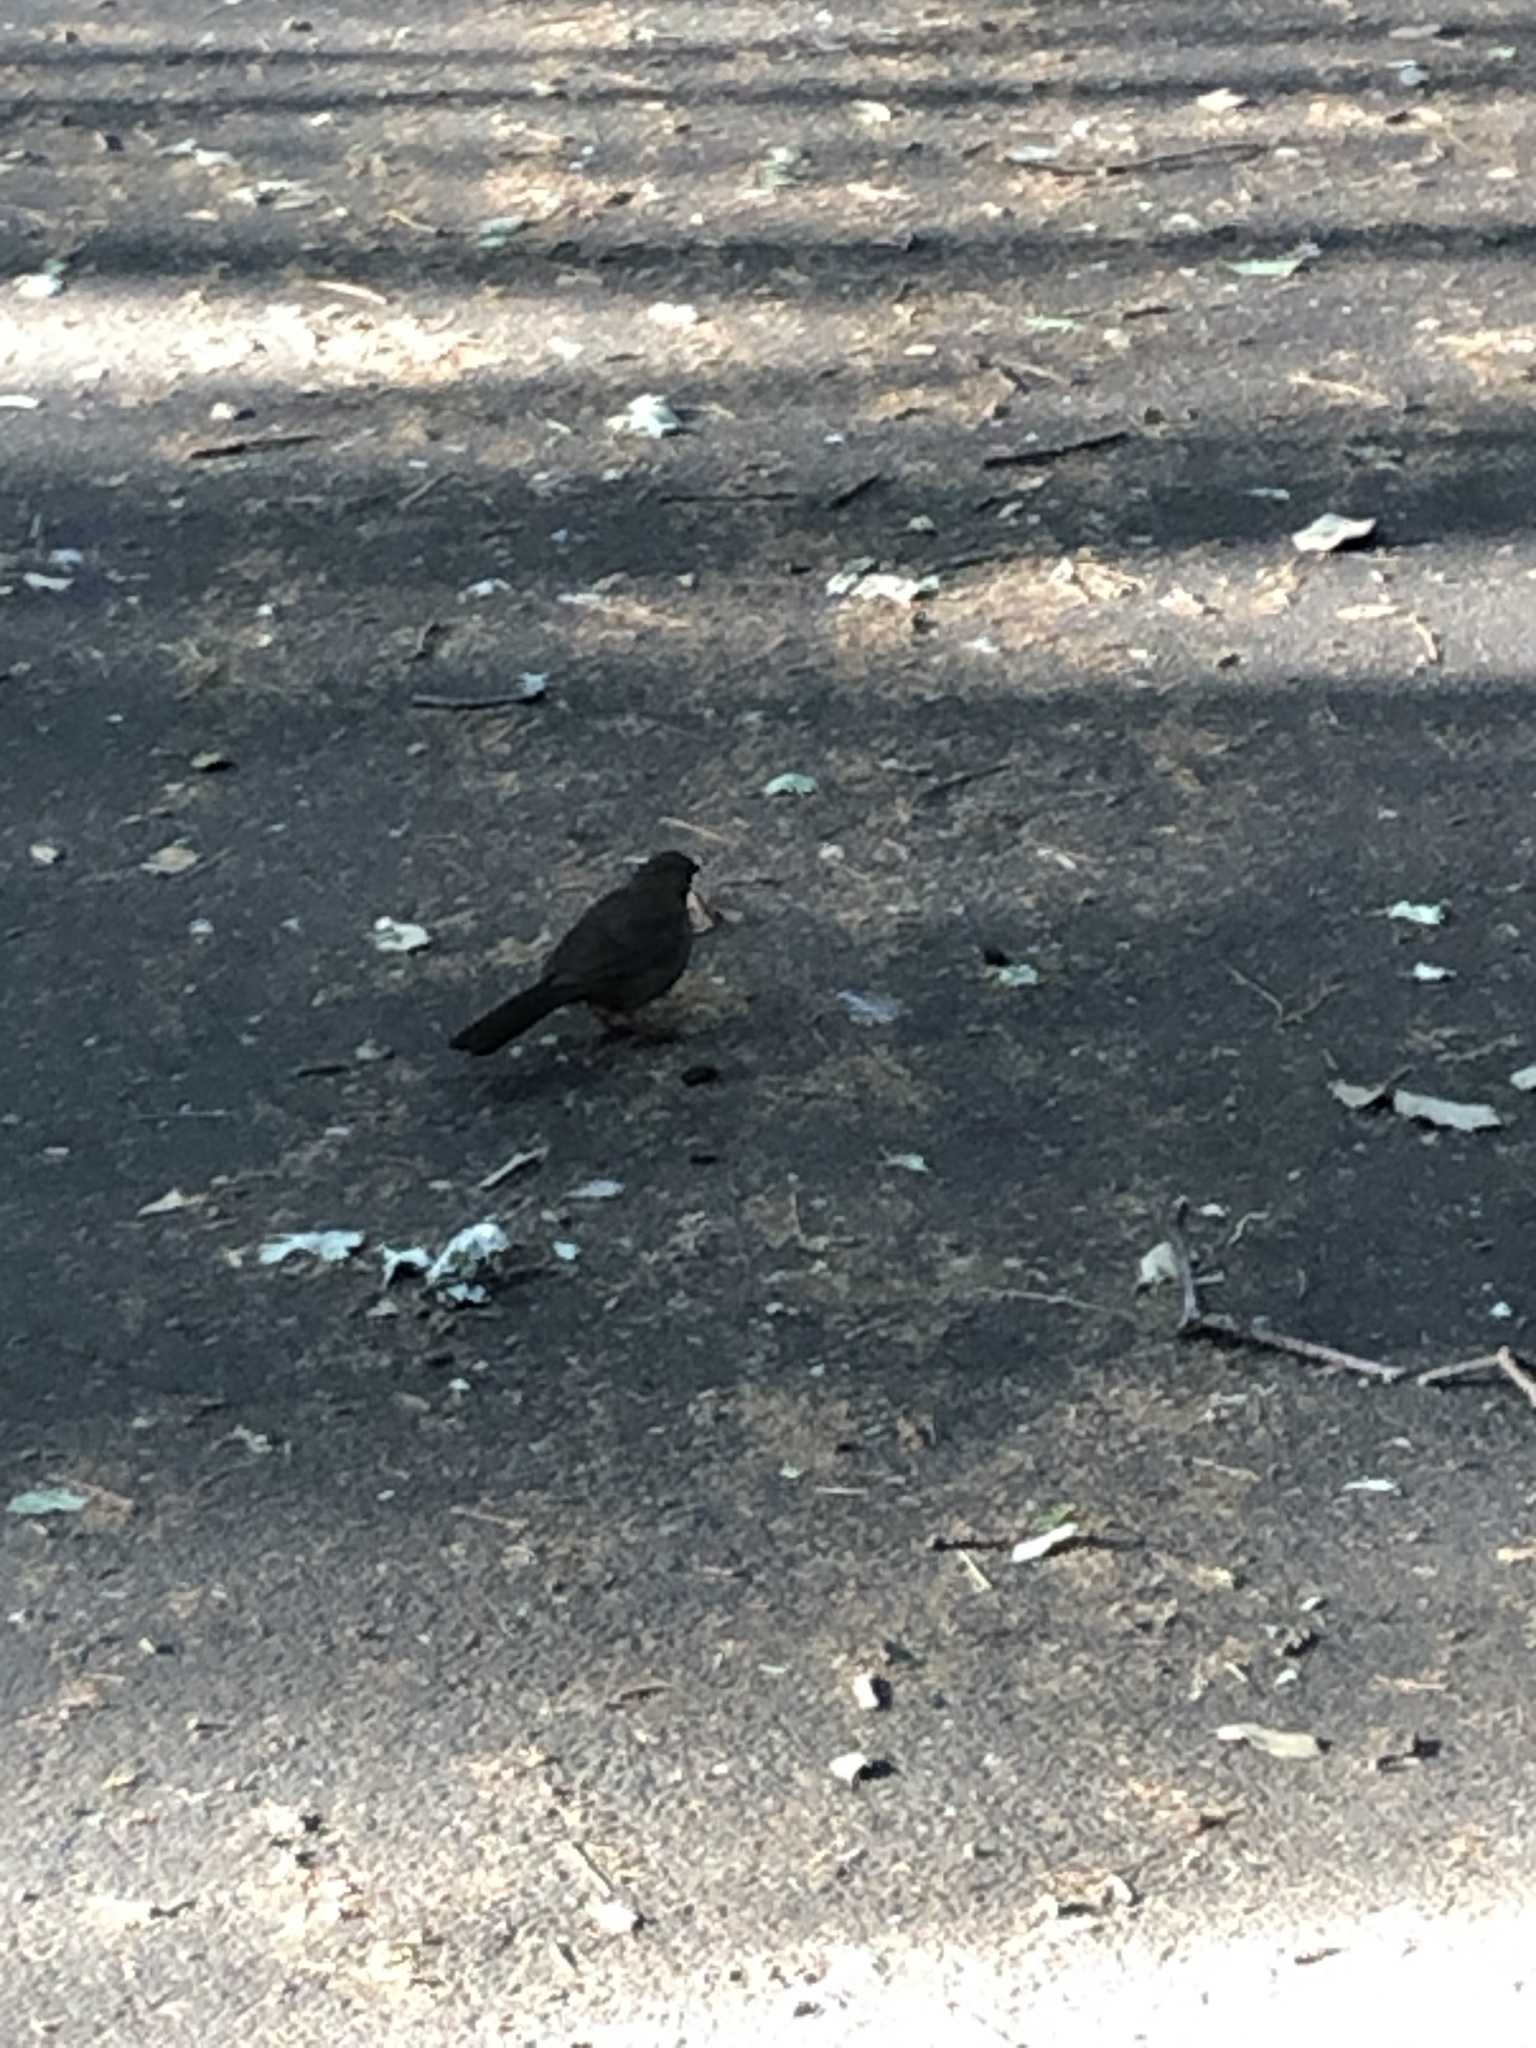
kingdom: Animalia
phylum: Chordata
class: Aves
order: Passeriformes
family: Passerellidae
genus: Melozone
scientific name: Melozone crissalis
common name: California towhee
